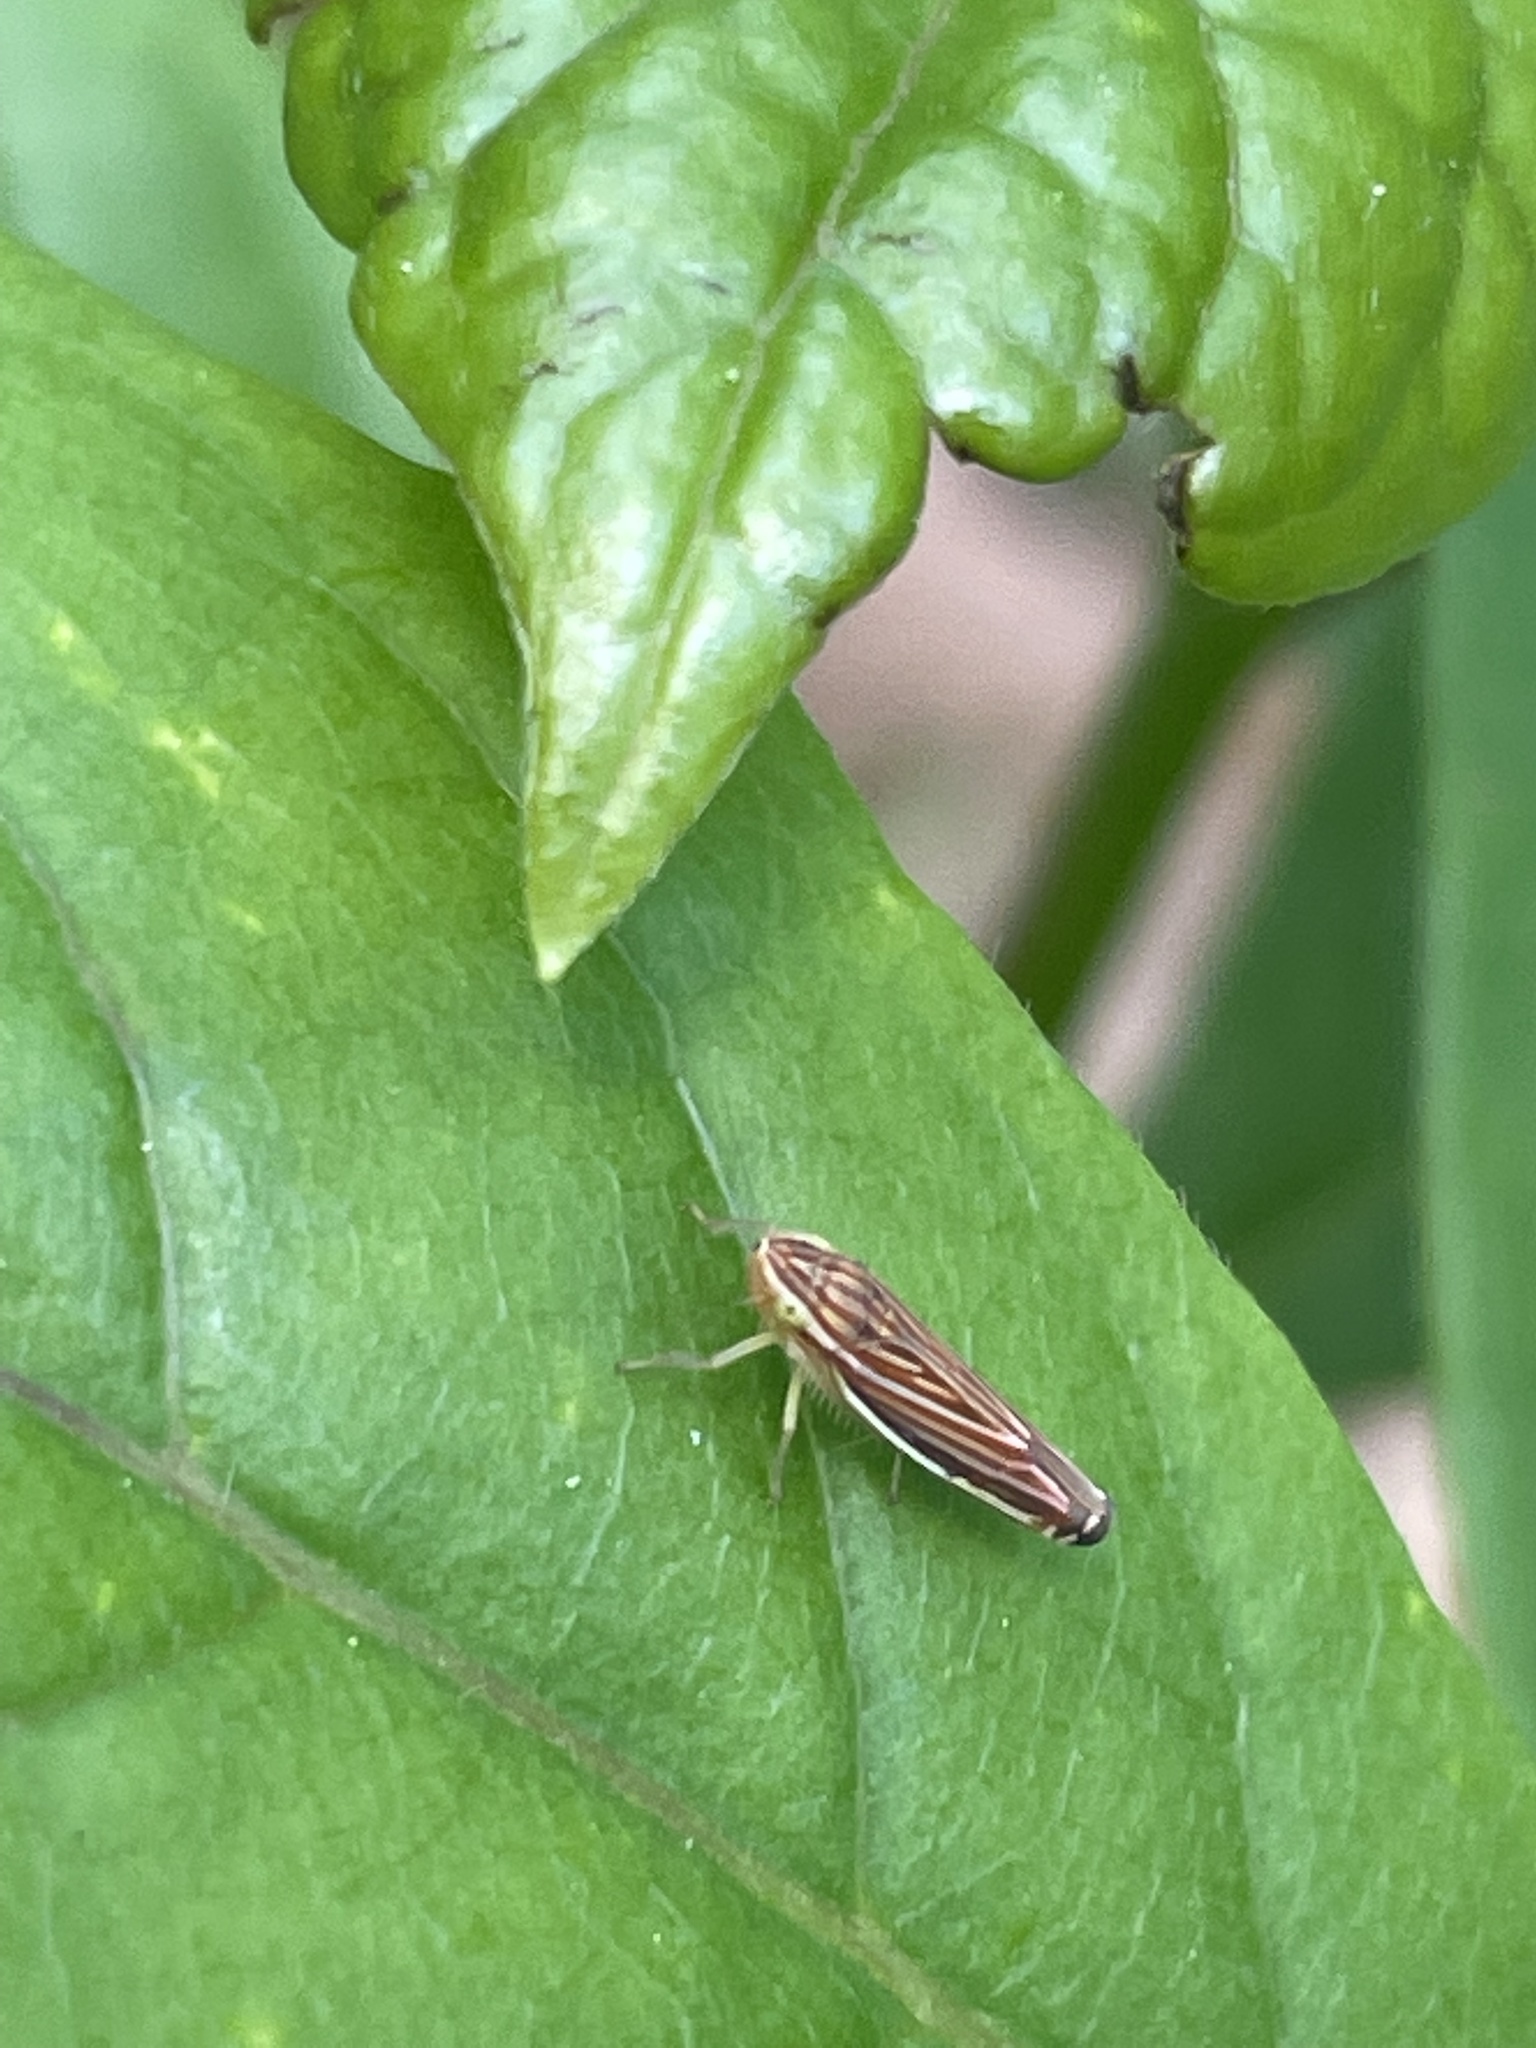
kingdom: Animalia
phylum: Arthropoda
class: Insecta
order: Hemiptera
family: Cicadellidae
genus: Sibovia
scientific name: Sibovia occatoria
